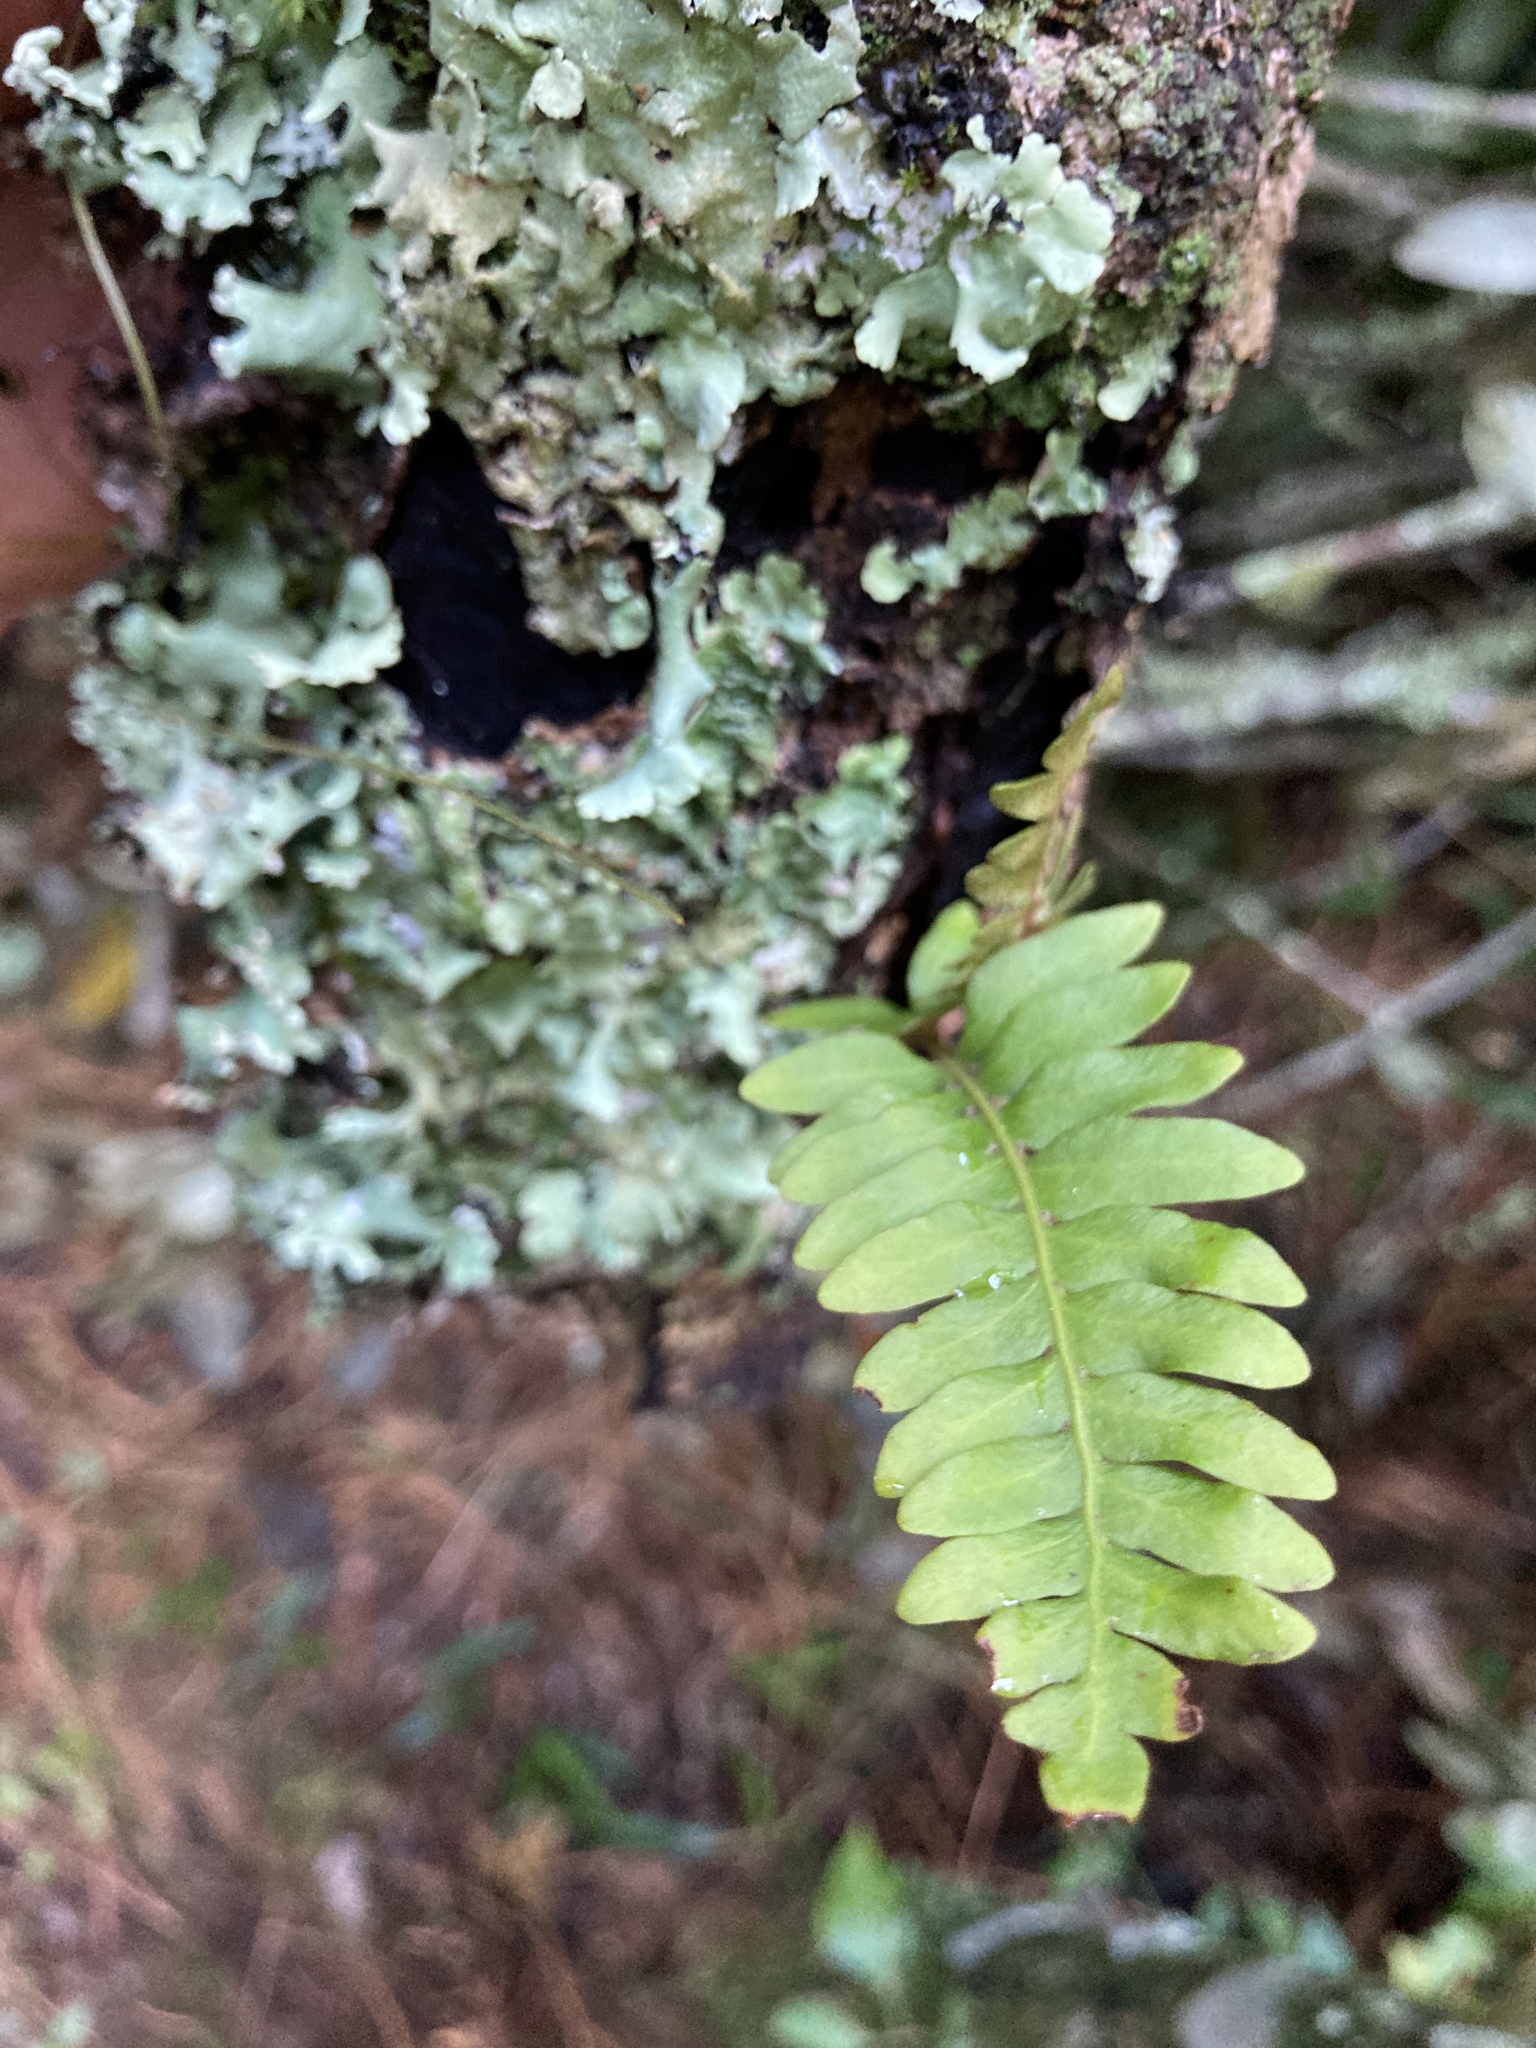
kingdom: Plantae
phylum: Tracheophyta
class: Polypodiopsida
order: Polypodiales
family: Polypodiaceae
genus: Pleopeltis
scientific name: Pleopeltis ecklonii
